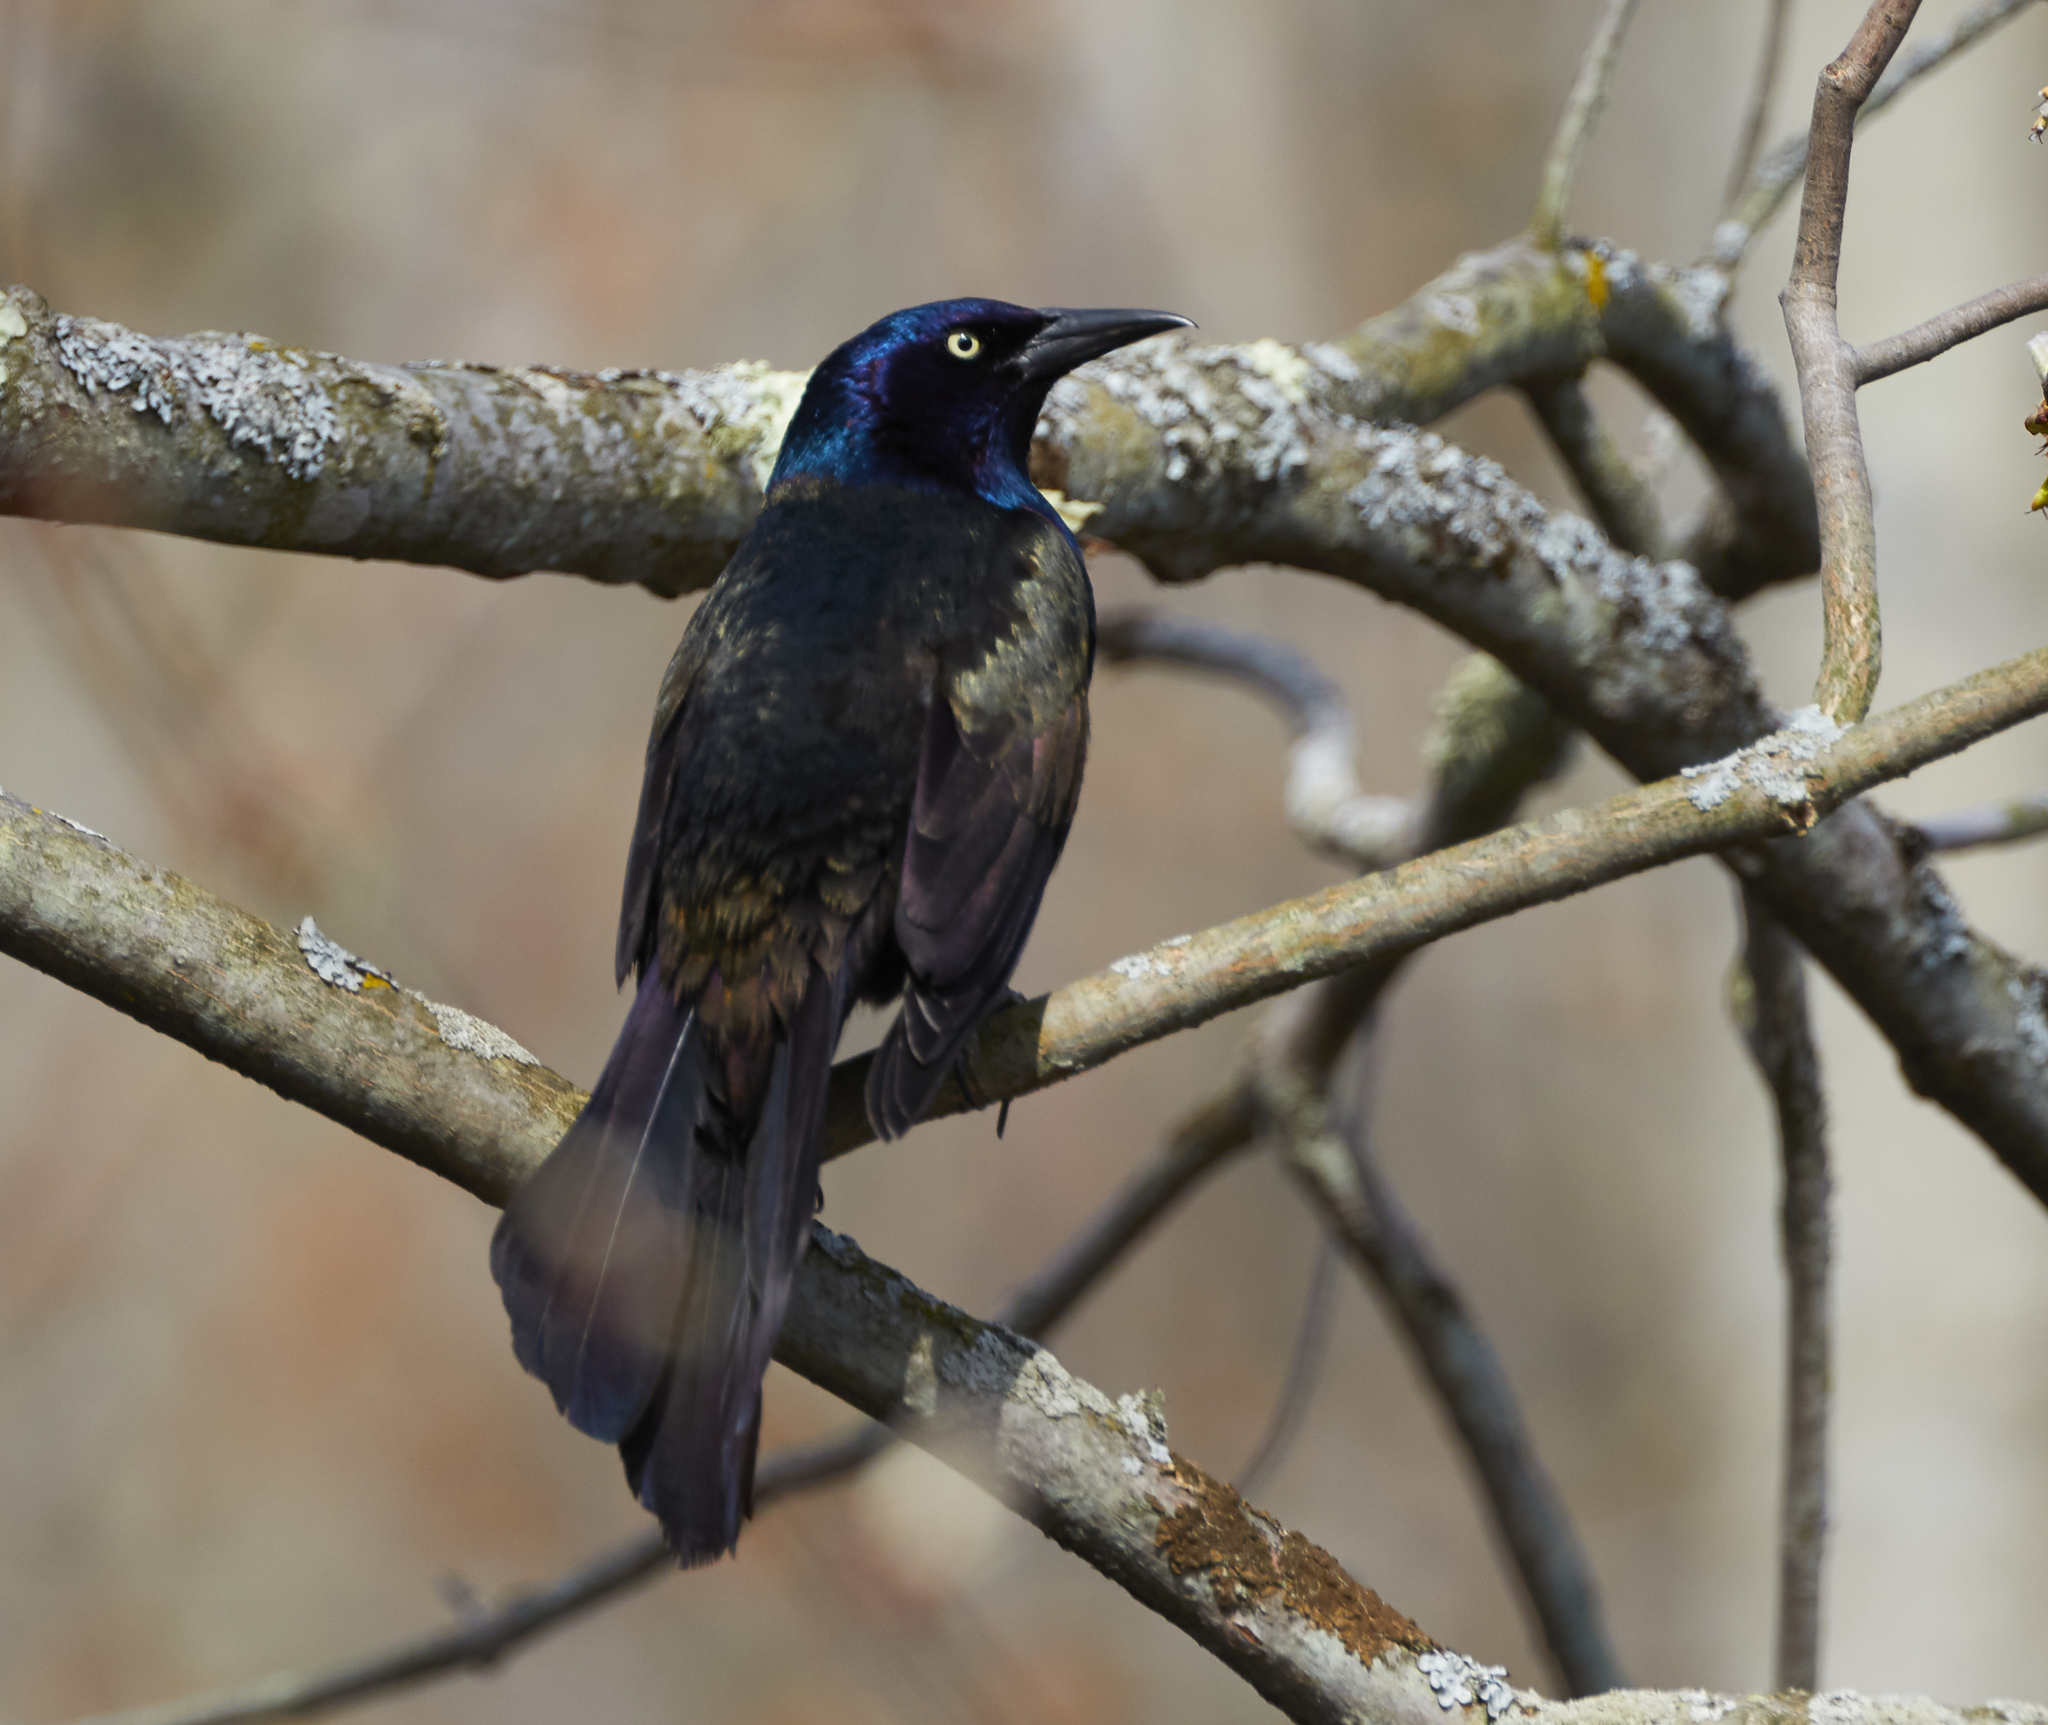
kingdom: Animalia
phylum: Chordata
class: Aves
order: Passeriformes
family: Icteridae
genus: Quiscalus
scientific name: Quiscalus quiscula
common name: Common grackle
